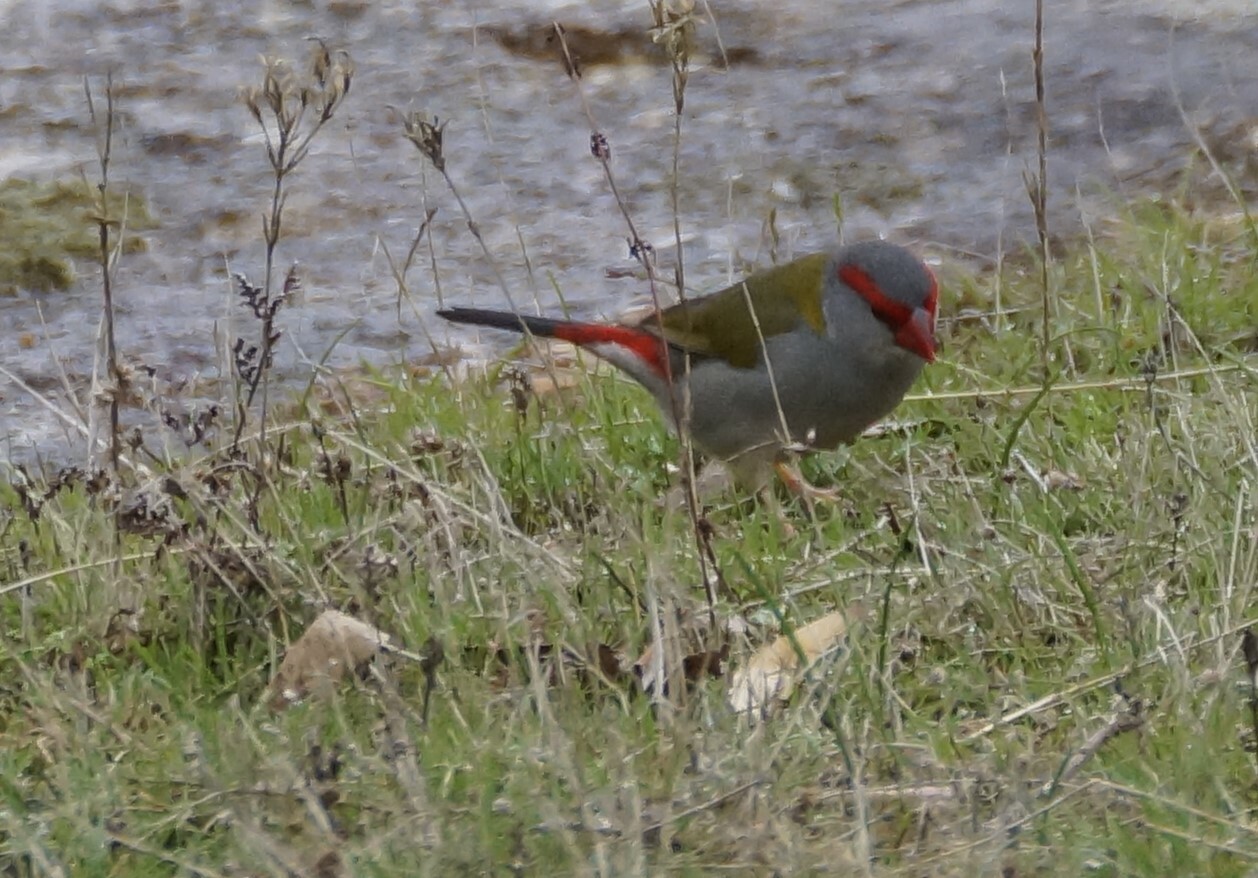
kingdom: Animalia
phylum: Chordata
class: Aves
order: Passeriformes
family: Estrildidae
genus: Neochmia
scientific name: Neochmia temporalis
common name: Red-browed finch
